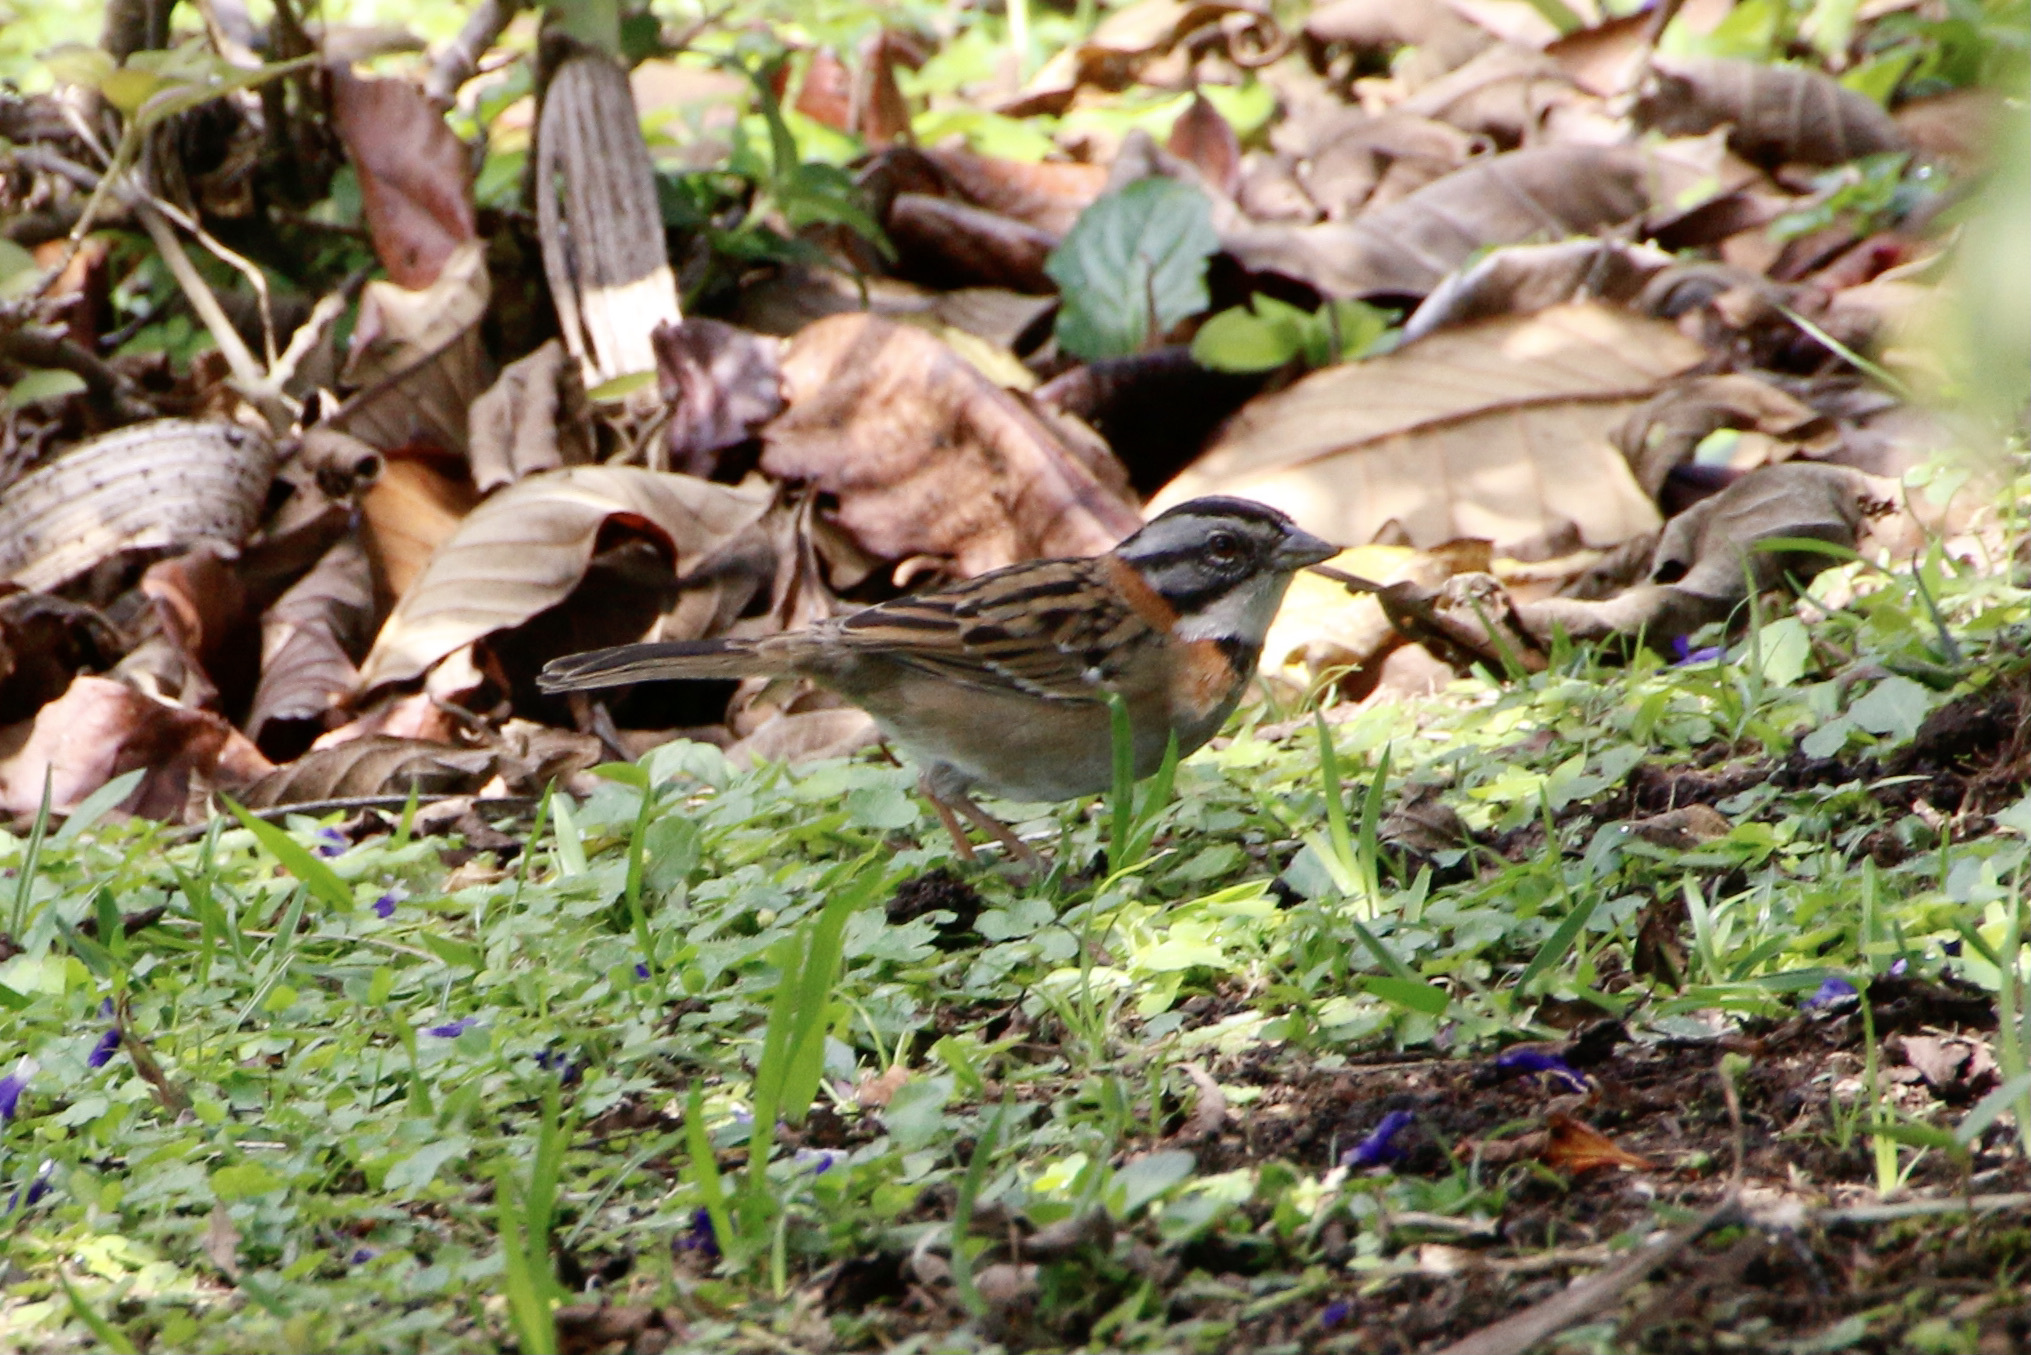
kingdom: Animalia
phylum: Chordata
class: Aves
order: Passeriformes
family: Passerellidae
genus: Zonotrichia
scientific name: Zonotrichia capensis
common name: Rufous-collared sparrow
